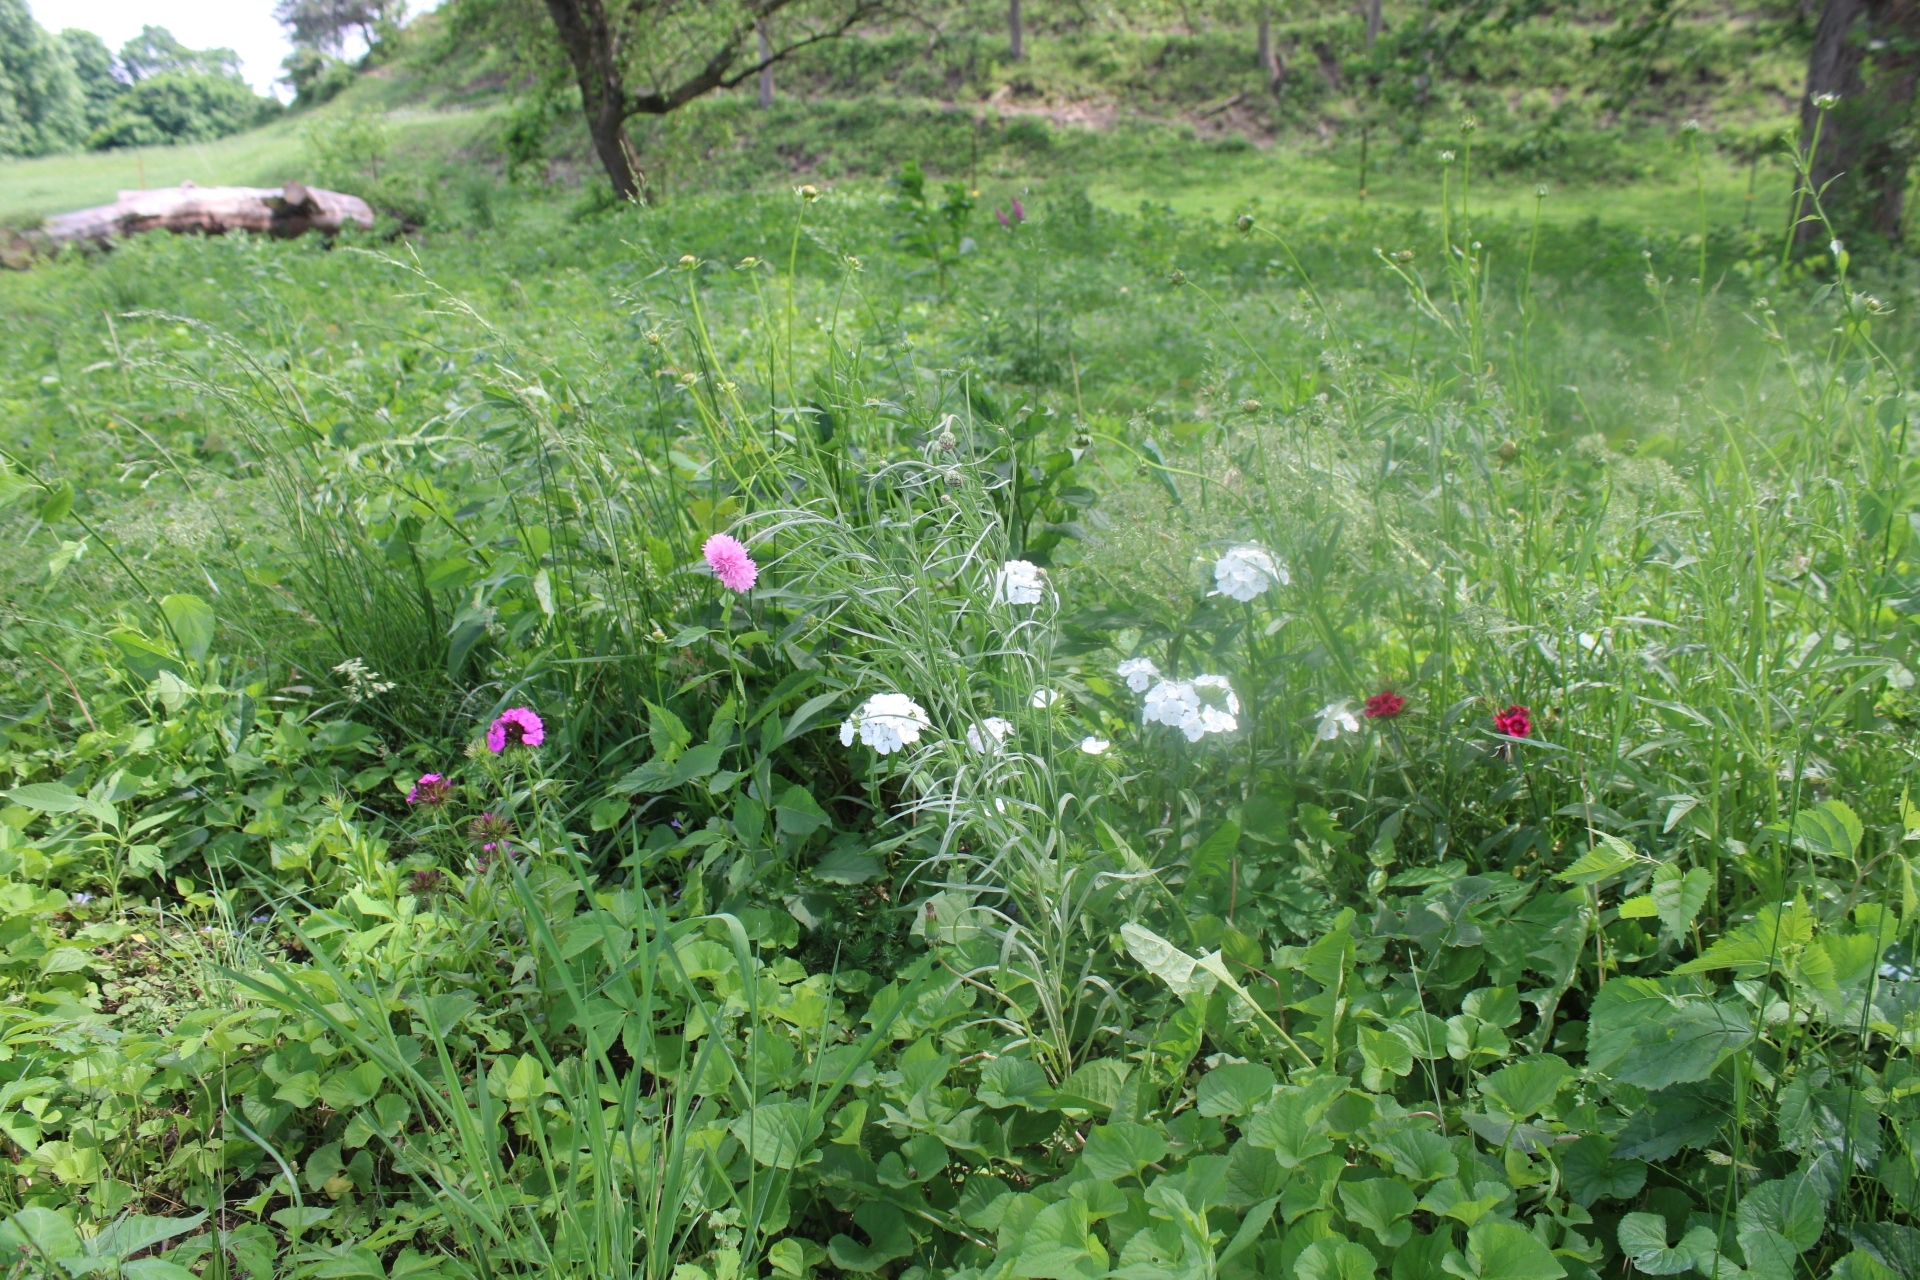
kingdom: Plantae
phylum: Tracheophyta
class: Magnoliopsida
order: Asterales
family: Asteraceae
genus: Centaurea
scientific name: Centaurea cyanus
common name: Cornflower
